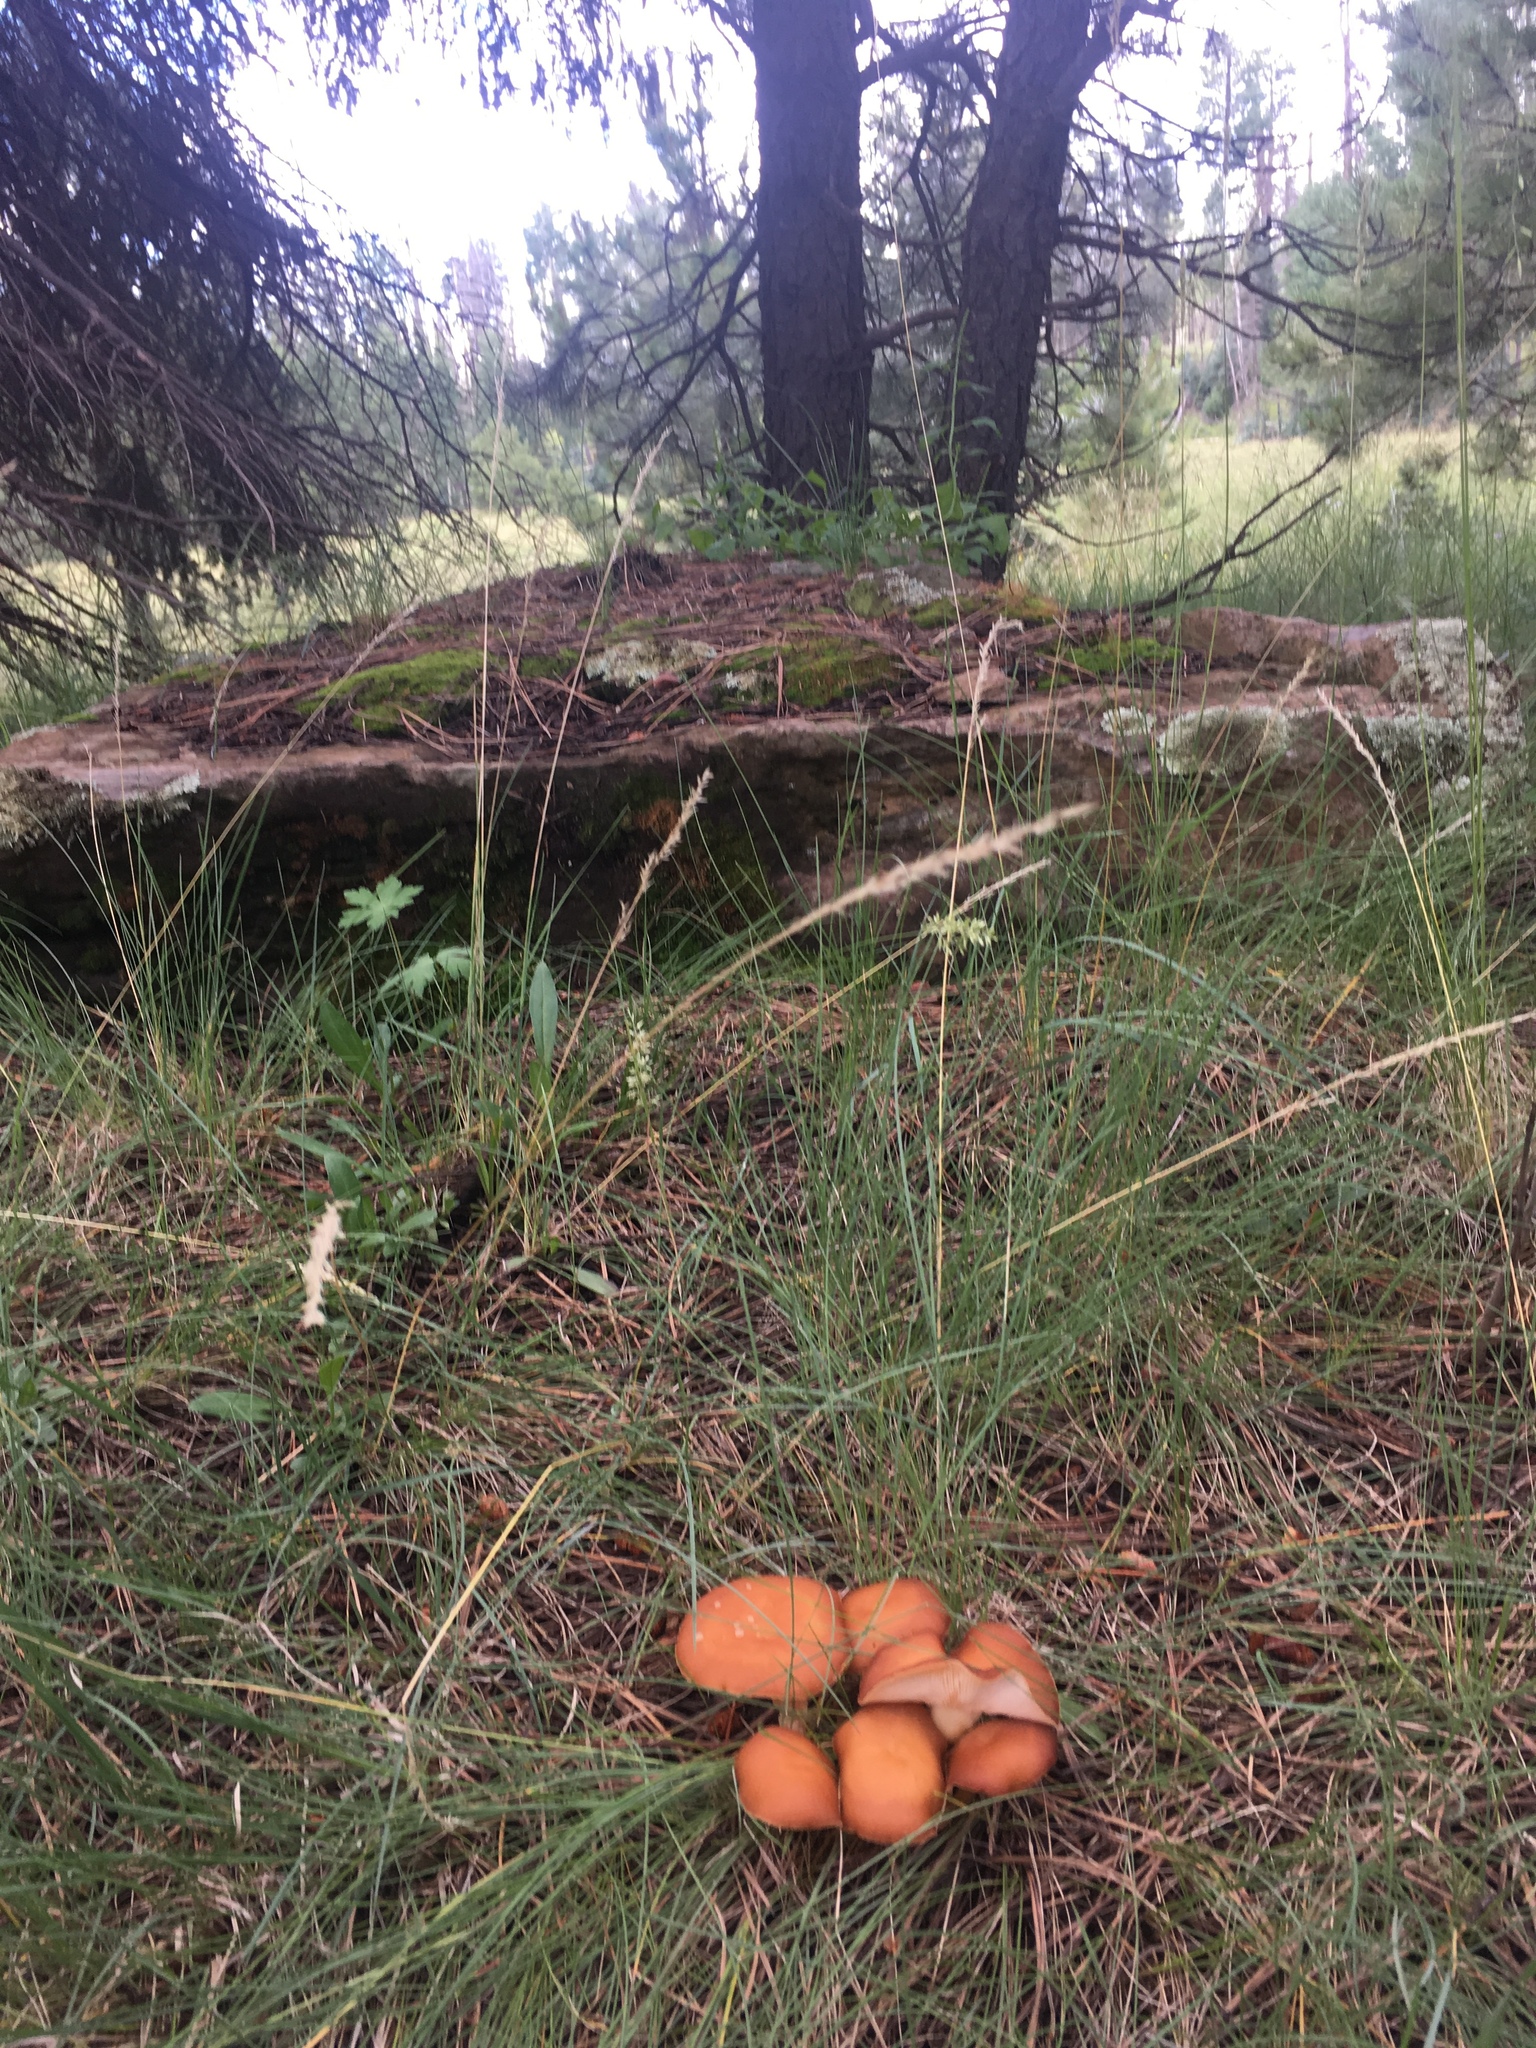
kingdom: Fungi
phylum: Basidiomycota
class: Tremellomycetes
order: Filobasidiales
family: Filobasidiaceae
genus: Syzygospora
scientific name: Syzygospora mycetophila
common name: Collybia clouds
